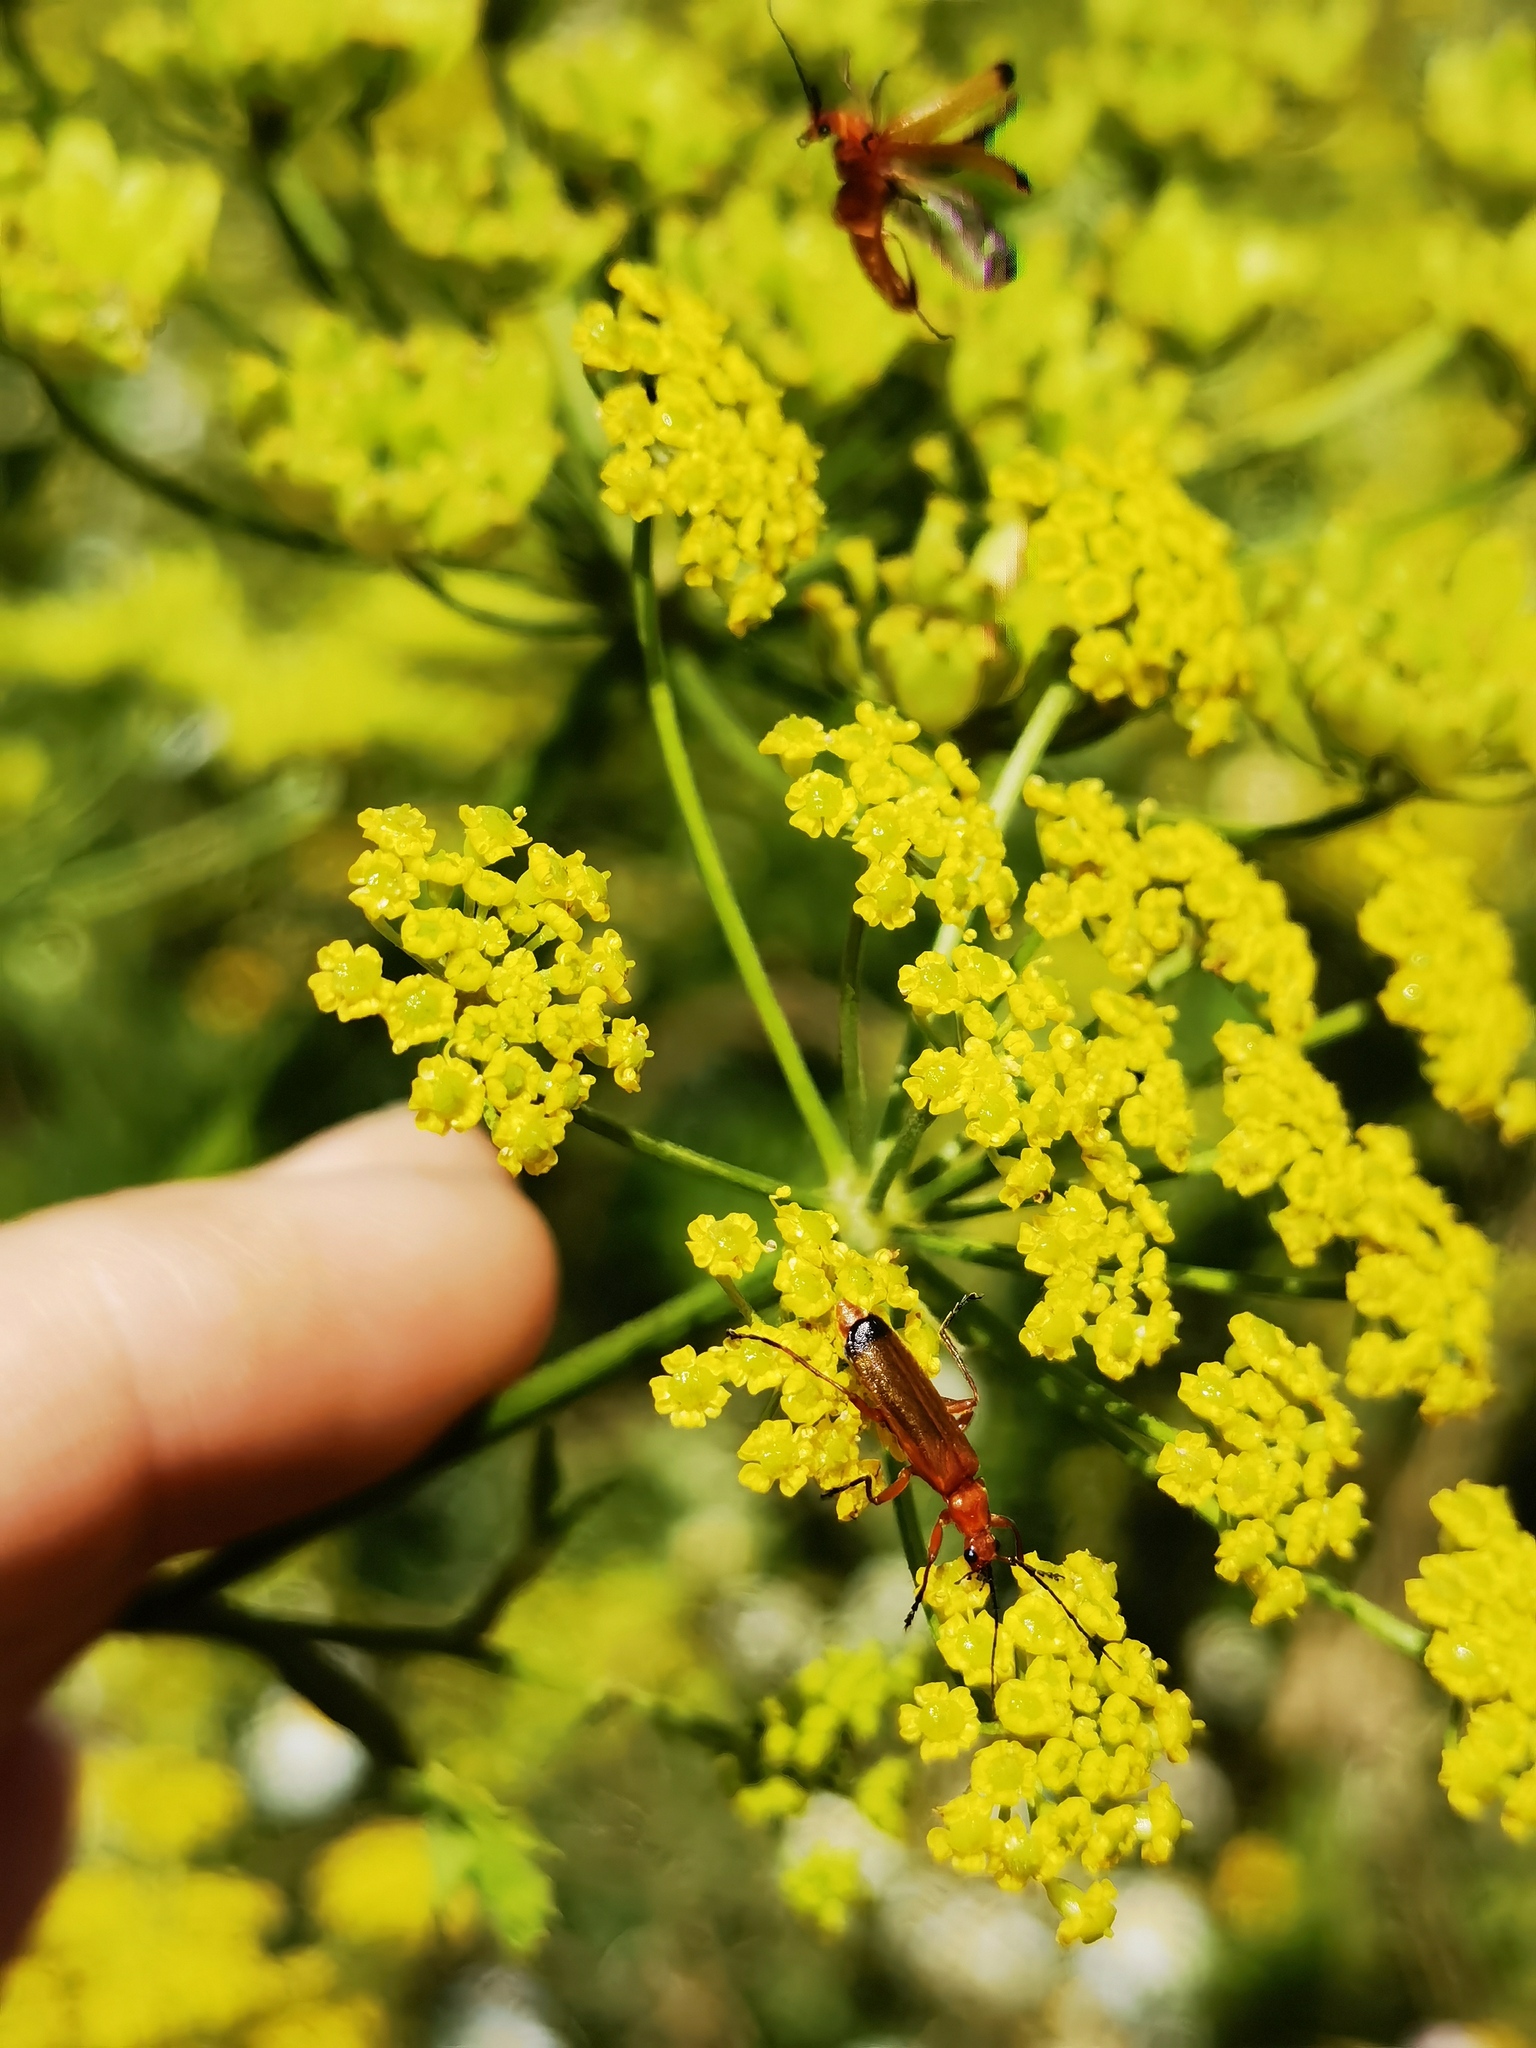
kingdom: Animalia
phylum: Arthropoda
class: Insecta
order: Coleoptera
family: Cantharidae
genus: Rhagonycha
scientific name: Rhagonycha fulva
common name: Common red soldier beetle
